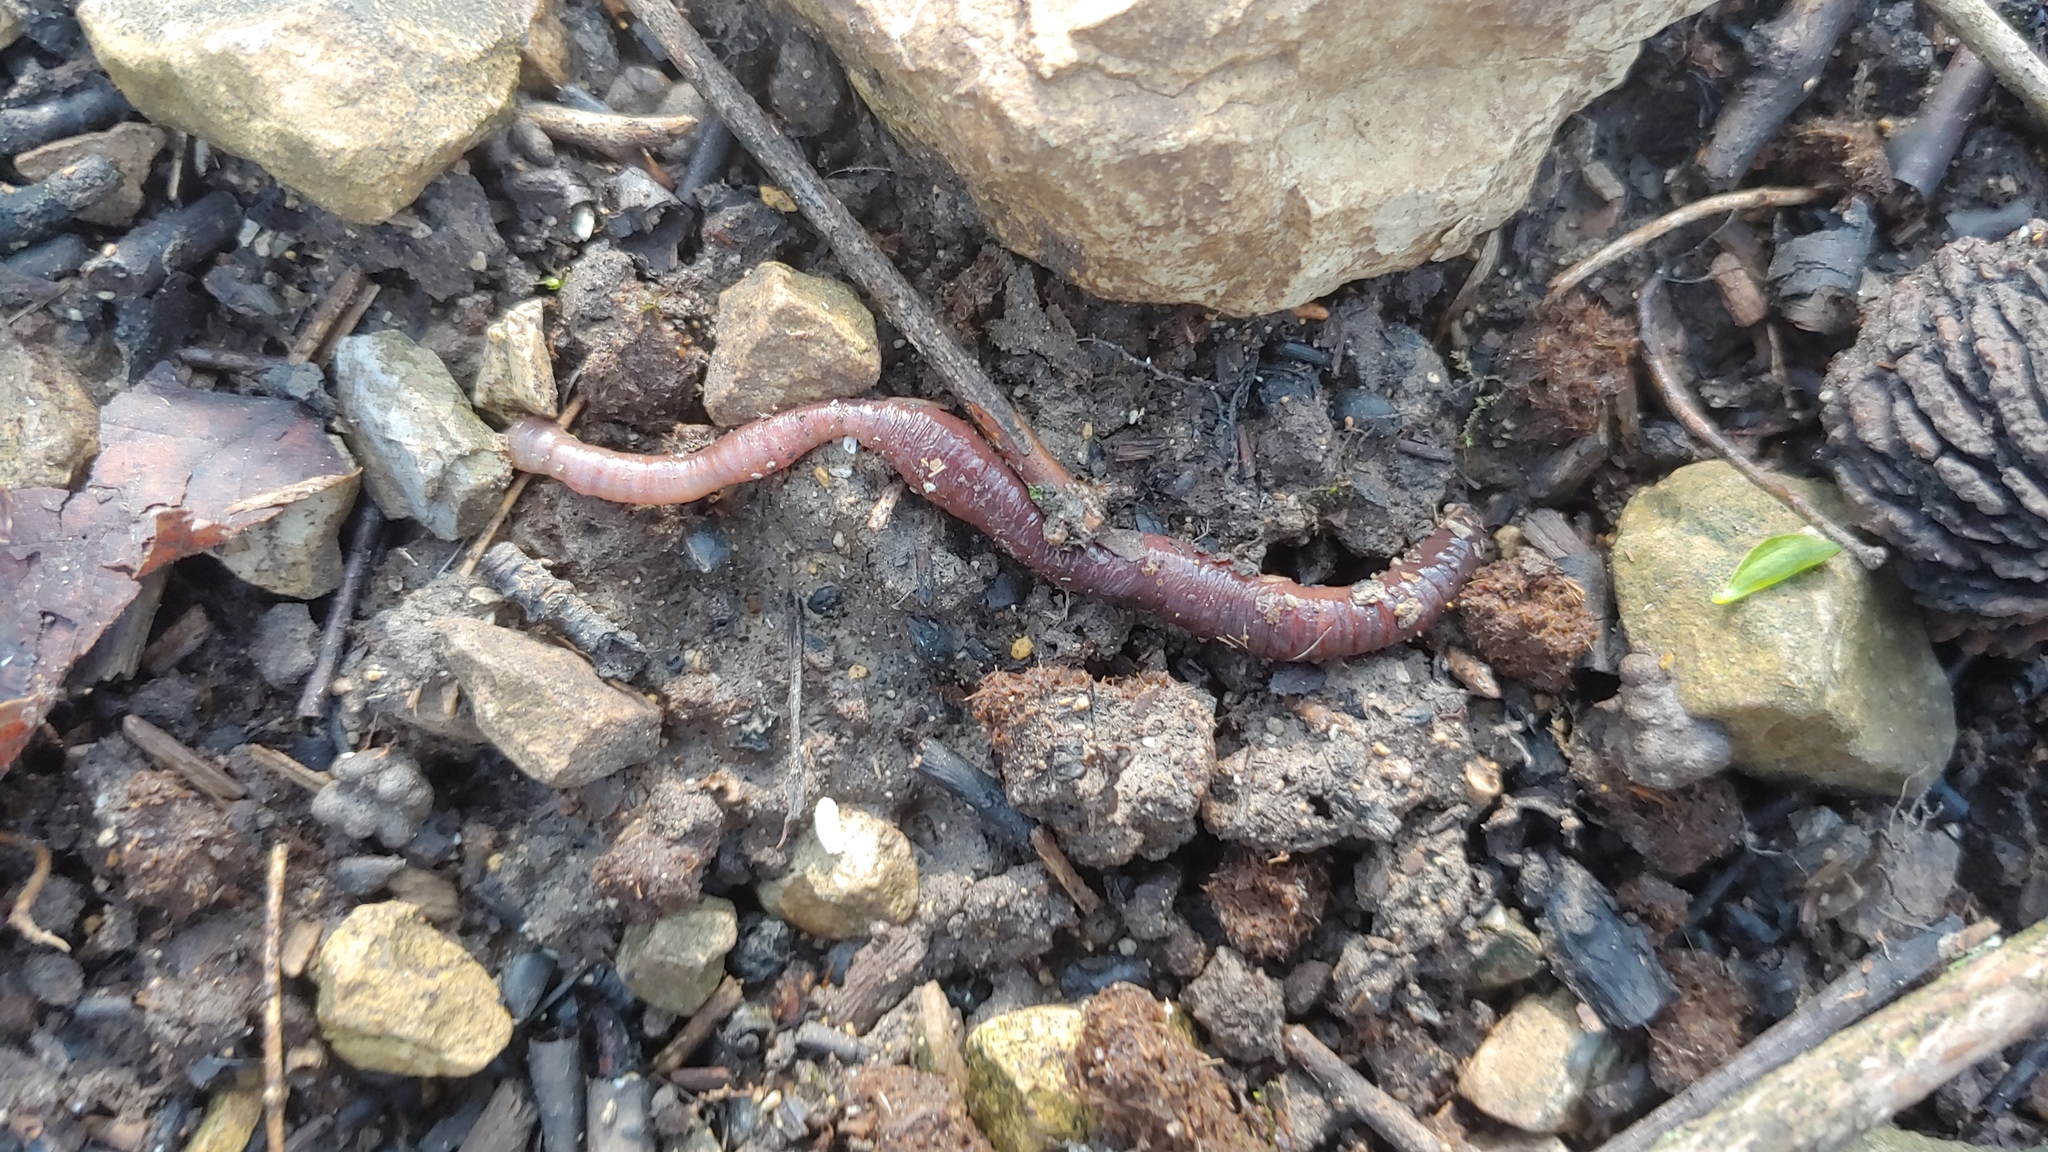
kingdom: Animalia
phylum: Annelida
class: Clitellata
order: Crassiclitellata
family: Lumbricidae
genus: Lumbricus
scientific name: Lumbricus terrestris
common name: Common earthworm
